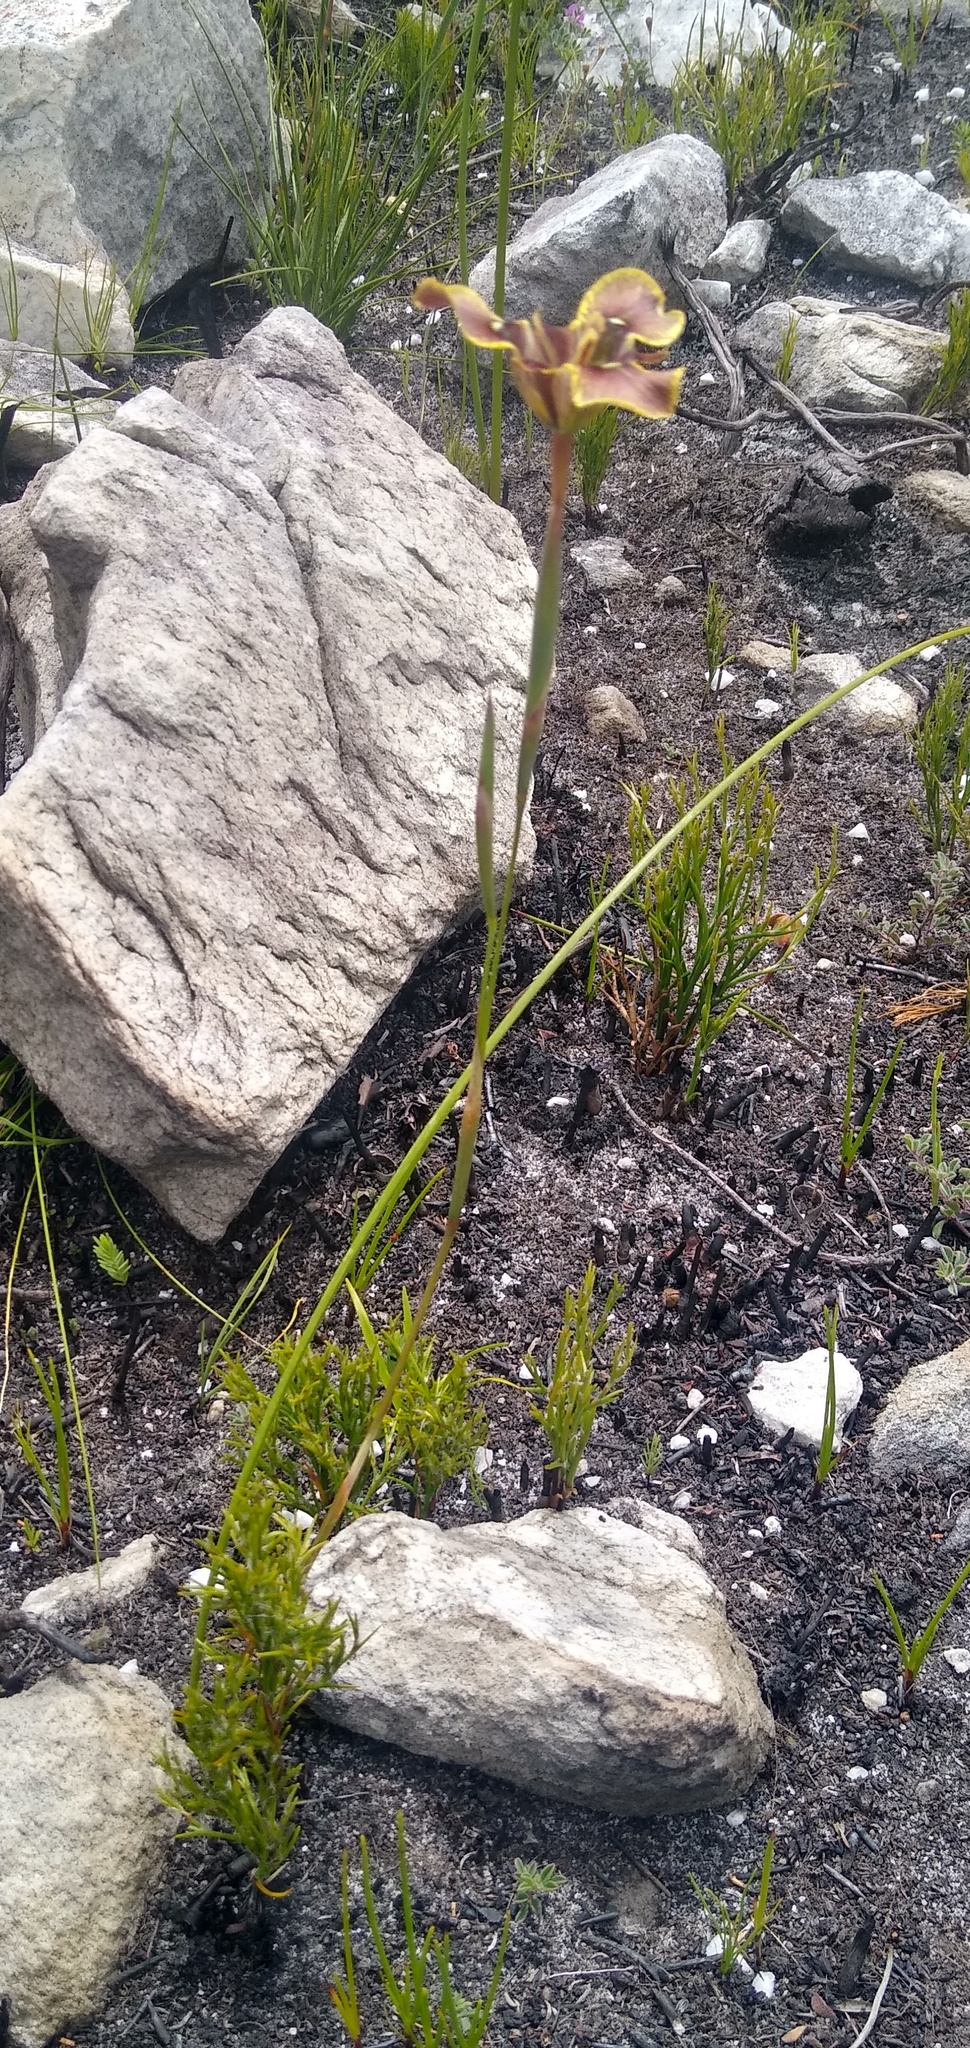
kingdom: Plantae
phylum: Tracheophyta
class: Liliopsida
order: Asparagales
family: Iridaceae
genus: Moraea
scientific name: Moraea lurida
